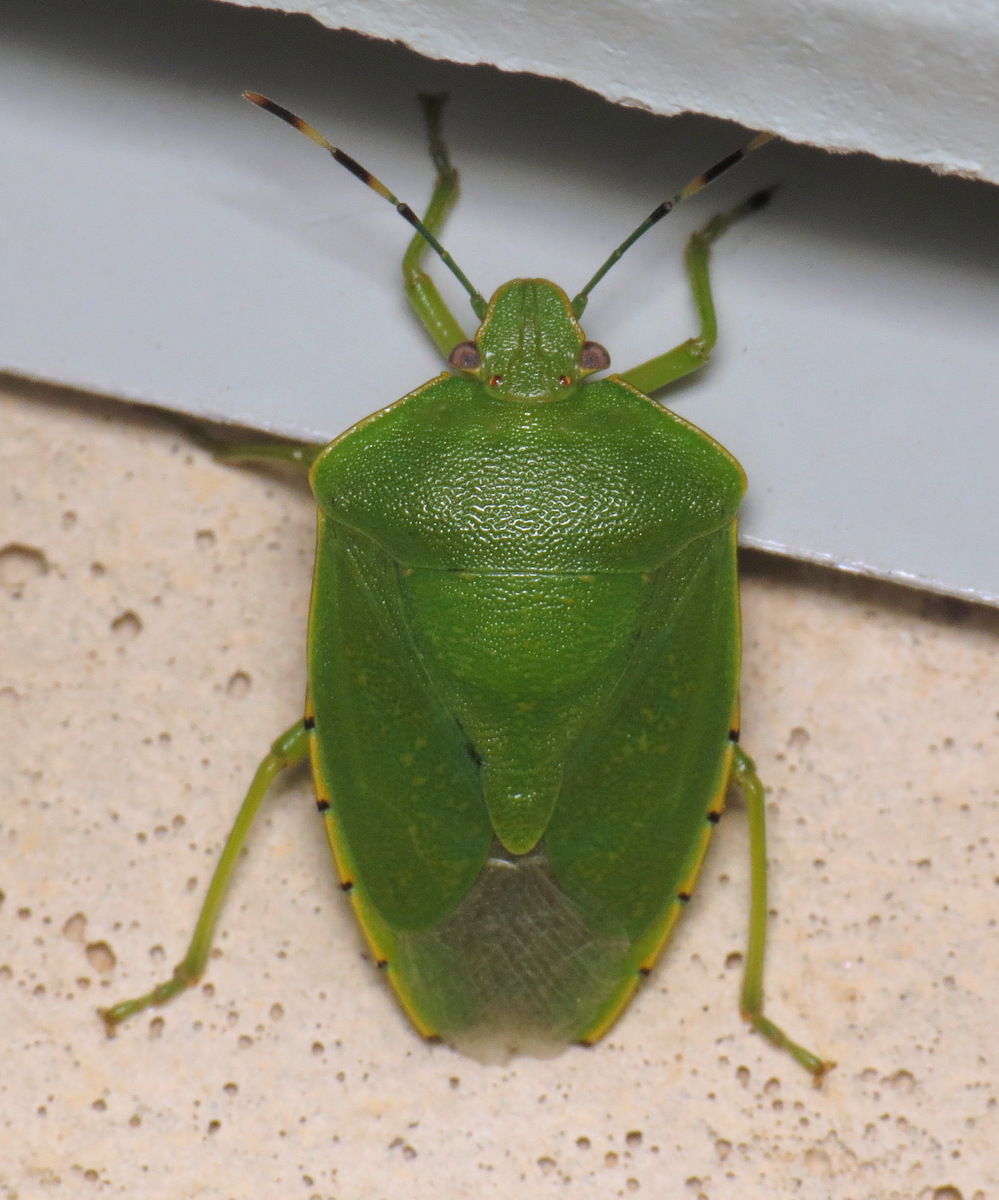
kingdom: Animalia
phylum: Arthropoda
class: Insecta
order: Hemiptera
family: Pentatomidae
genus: Chinavia
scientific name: Chinavia hilaris
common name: Green stink bug
